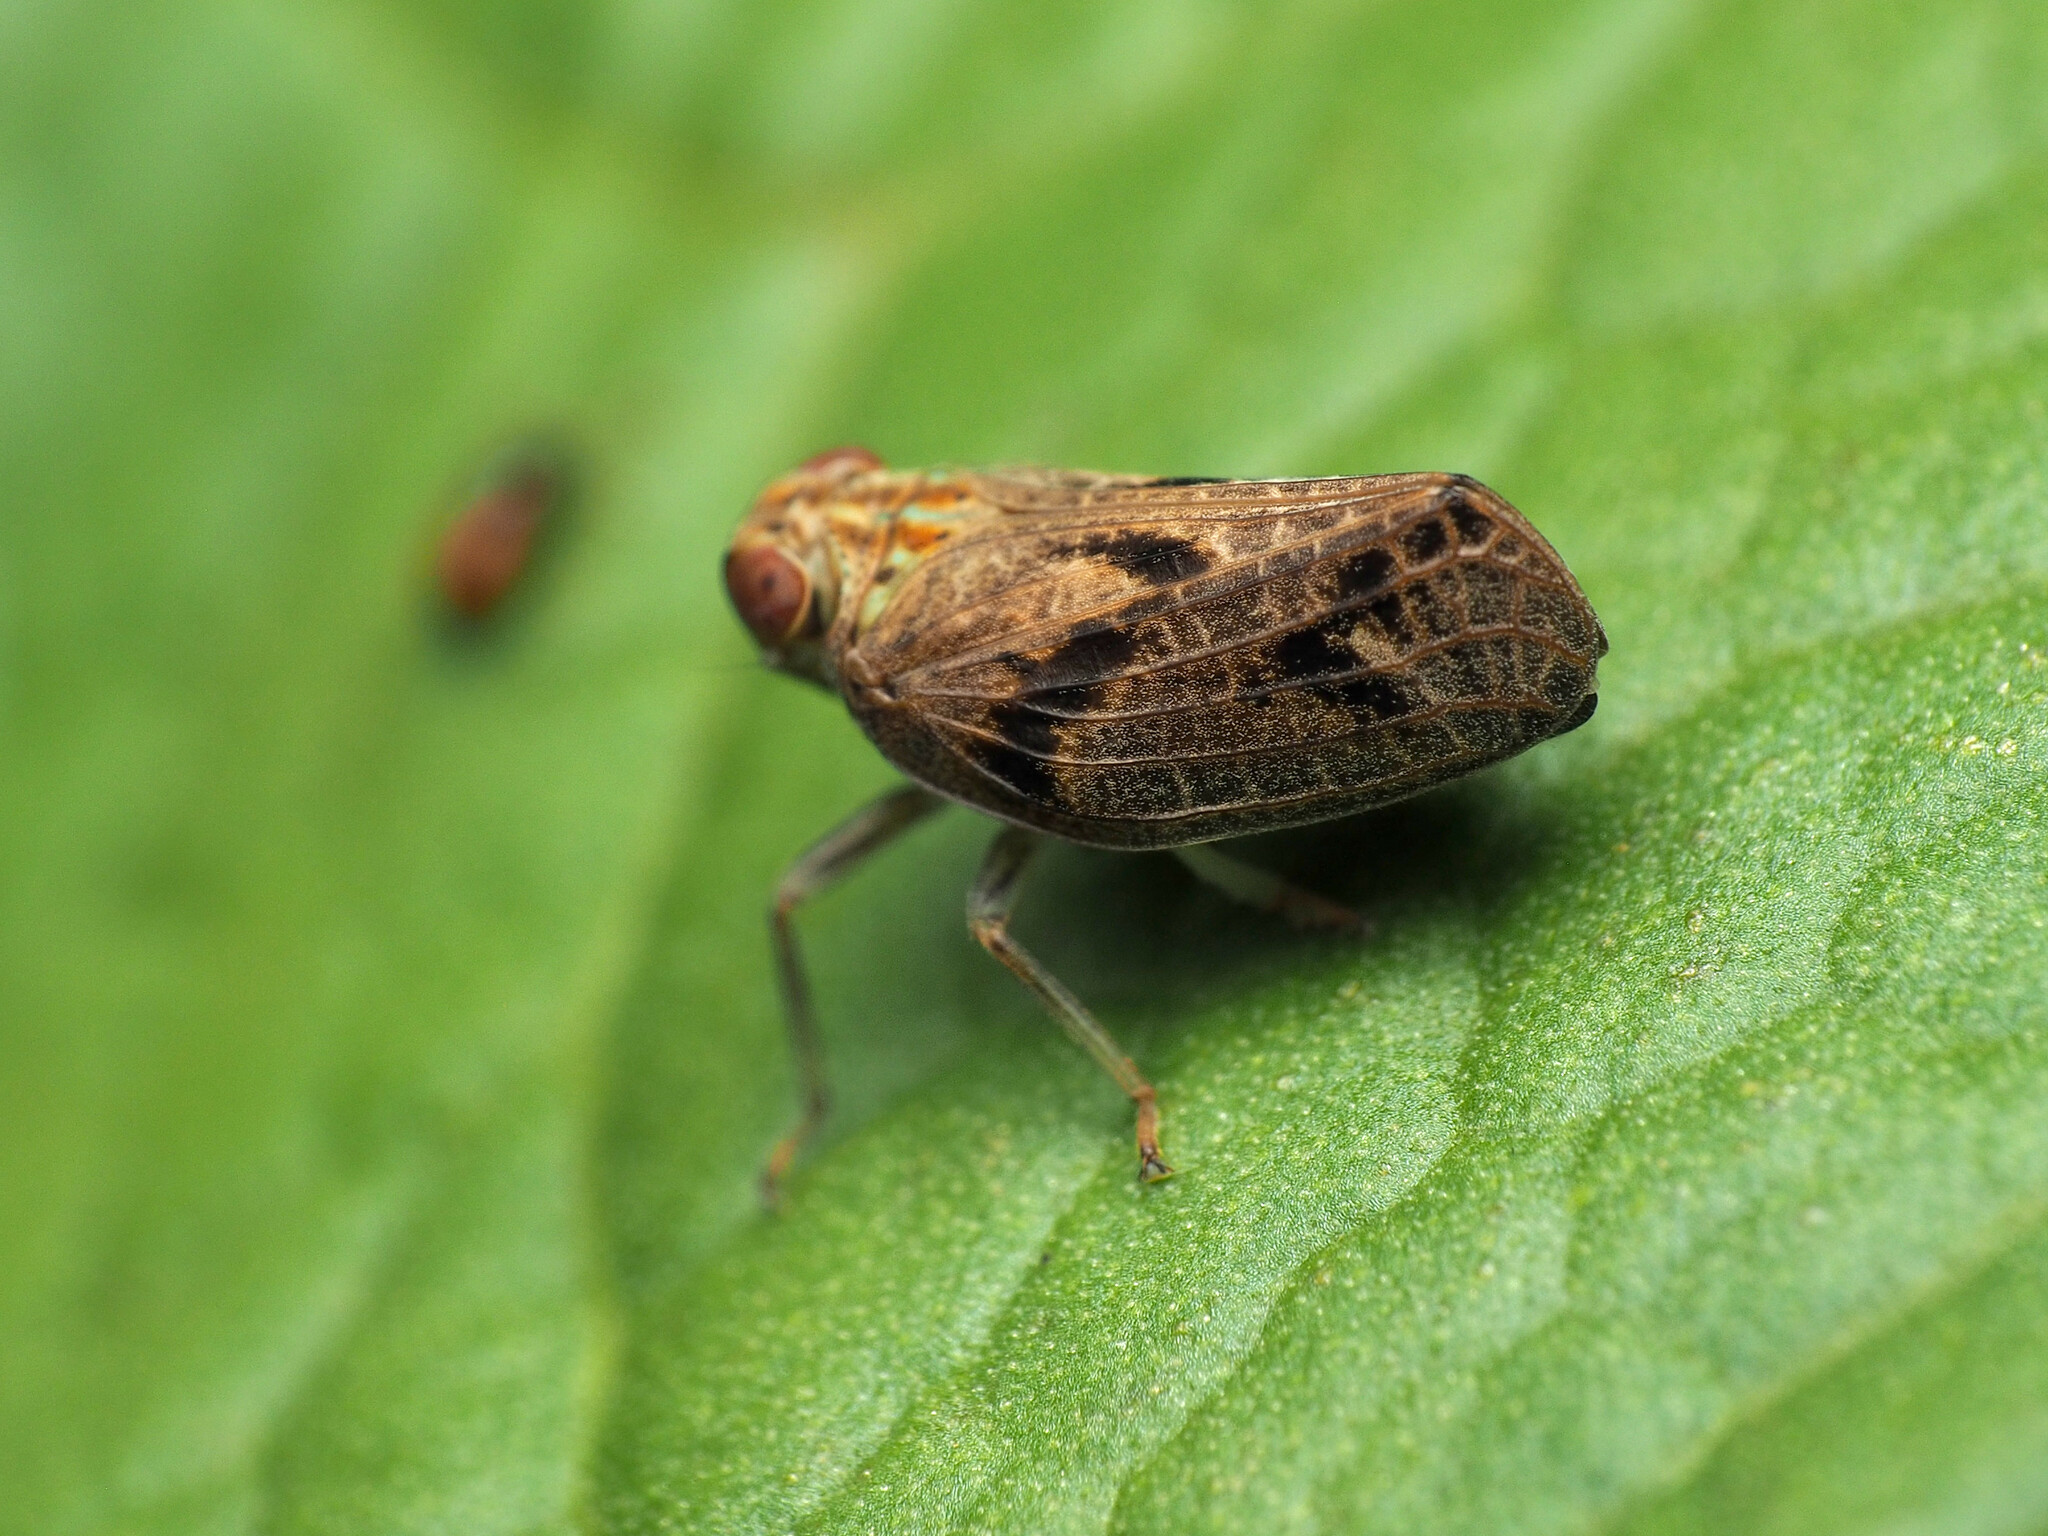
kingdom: Animalia
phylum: Arthropoda
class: Insecta
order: Hemiptera
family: Issidae
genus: Thionia
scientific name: Thionia bullata
